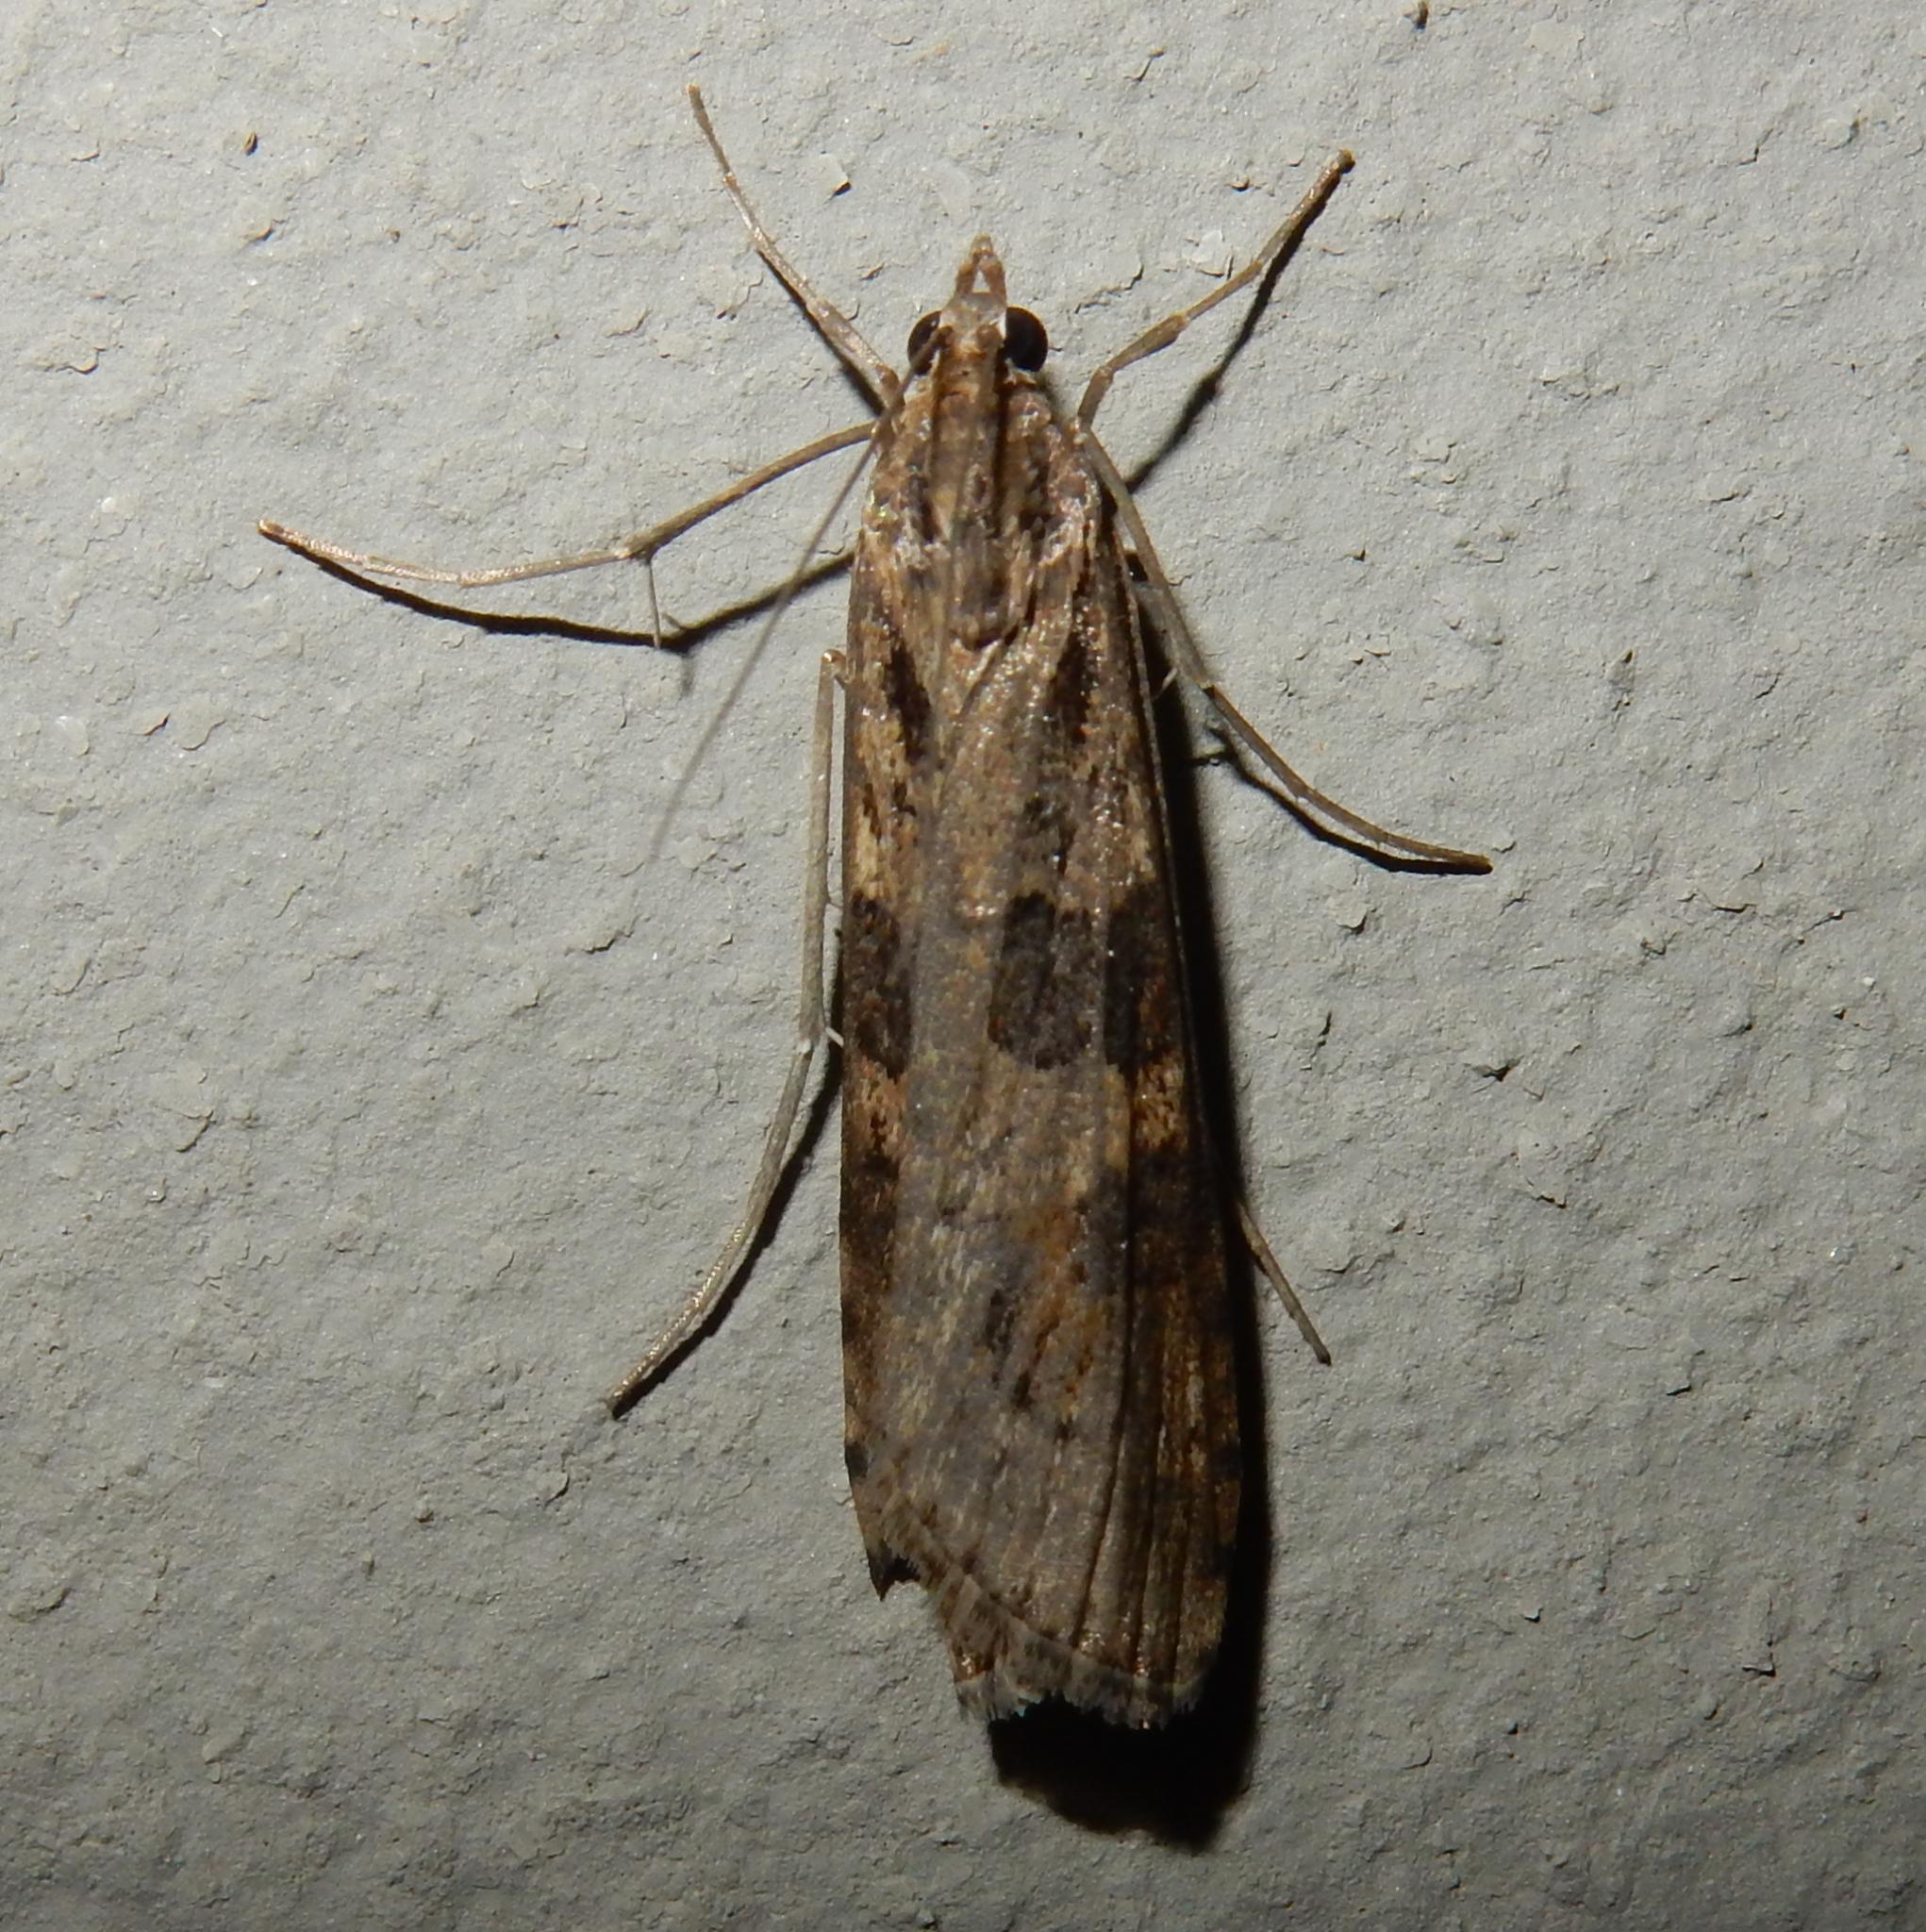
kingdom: Animalia
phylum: Arthropoda
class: Insecta
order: Lepidoptera
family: Crambidae
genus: Nomophila
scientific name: Nomophila noctuella
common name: Rush veneer
